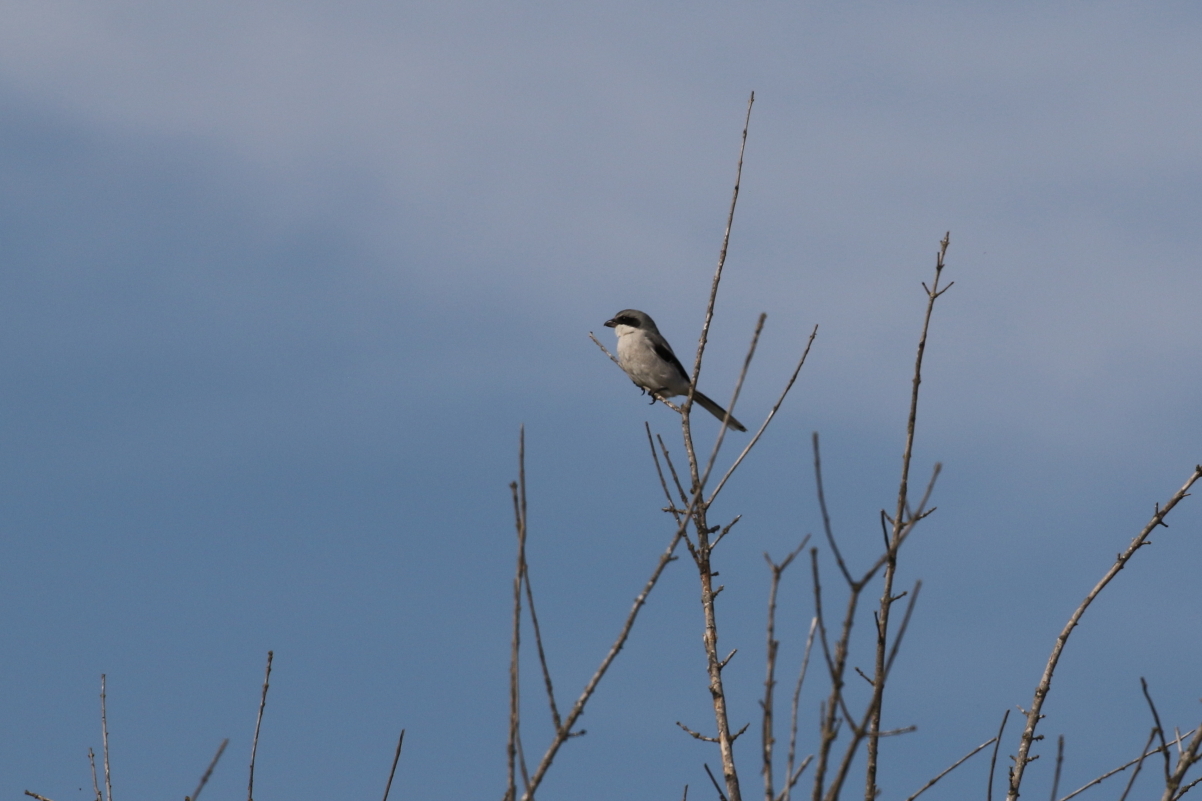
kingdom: Animalia
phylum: Chordata
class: Aves
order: Passeriformes
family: Laniidae
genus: Lanius
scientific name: Lanius ludovicianus
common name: Loggerhead shrike
